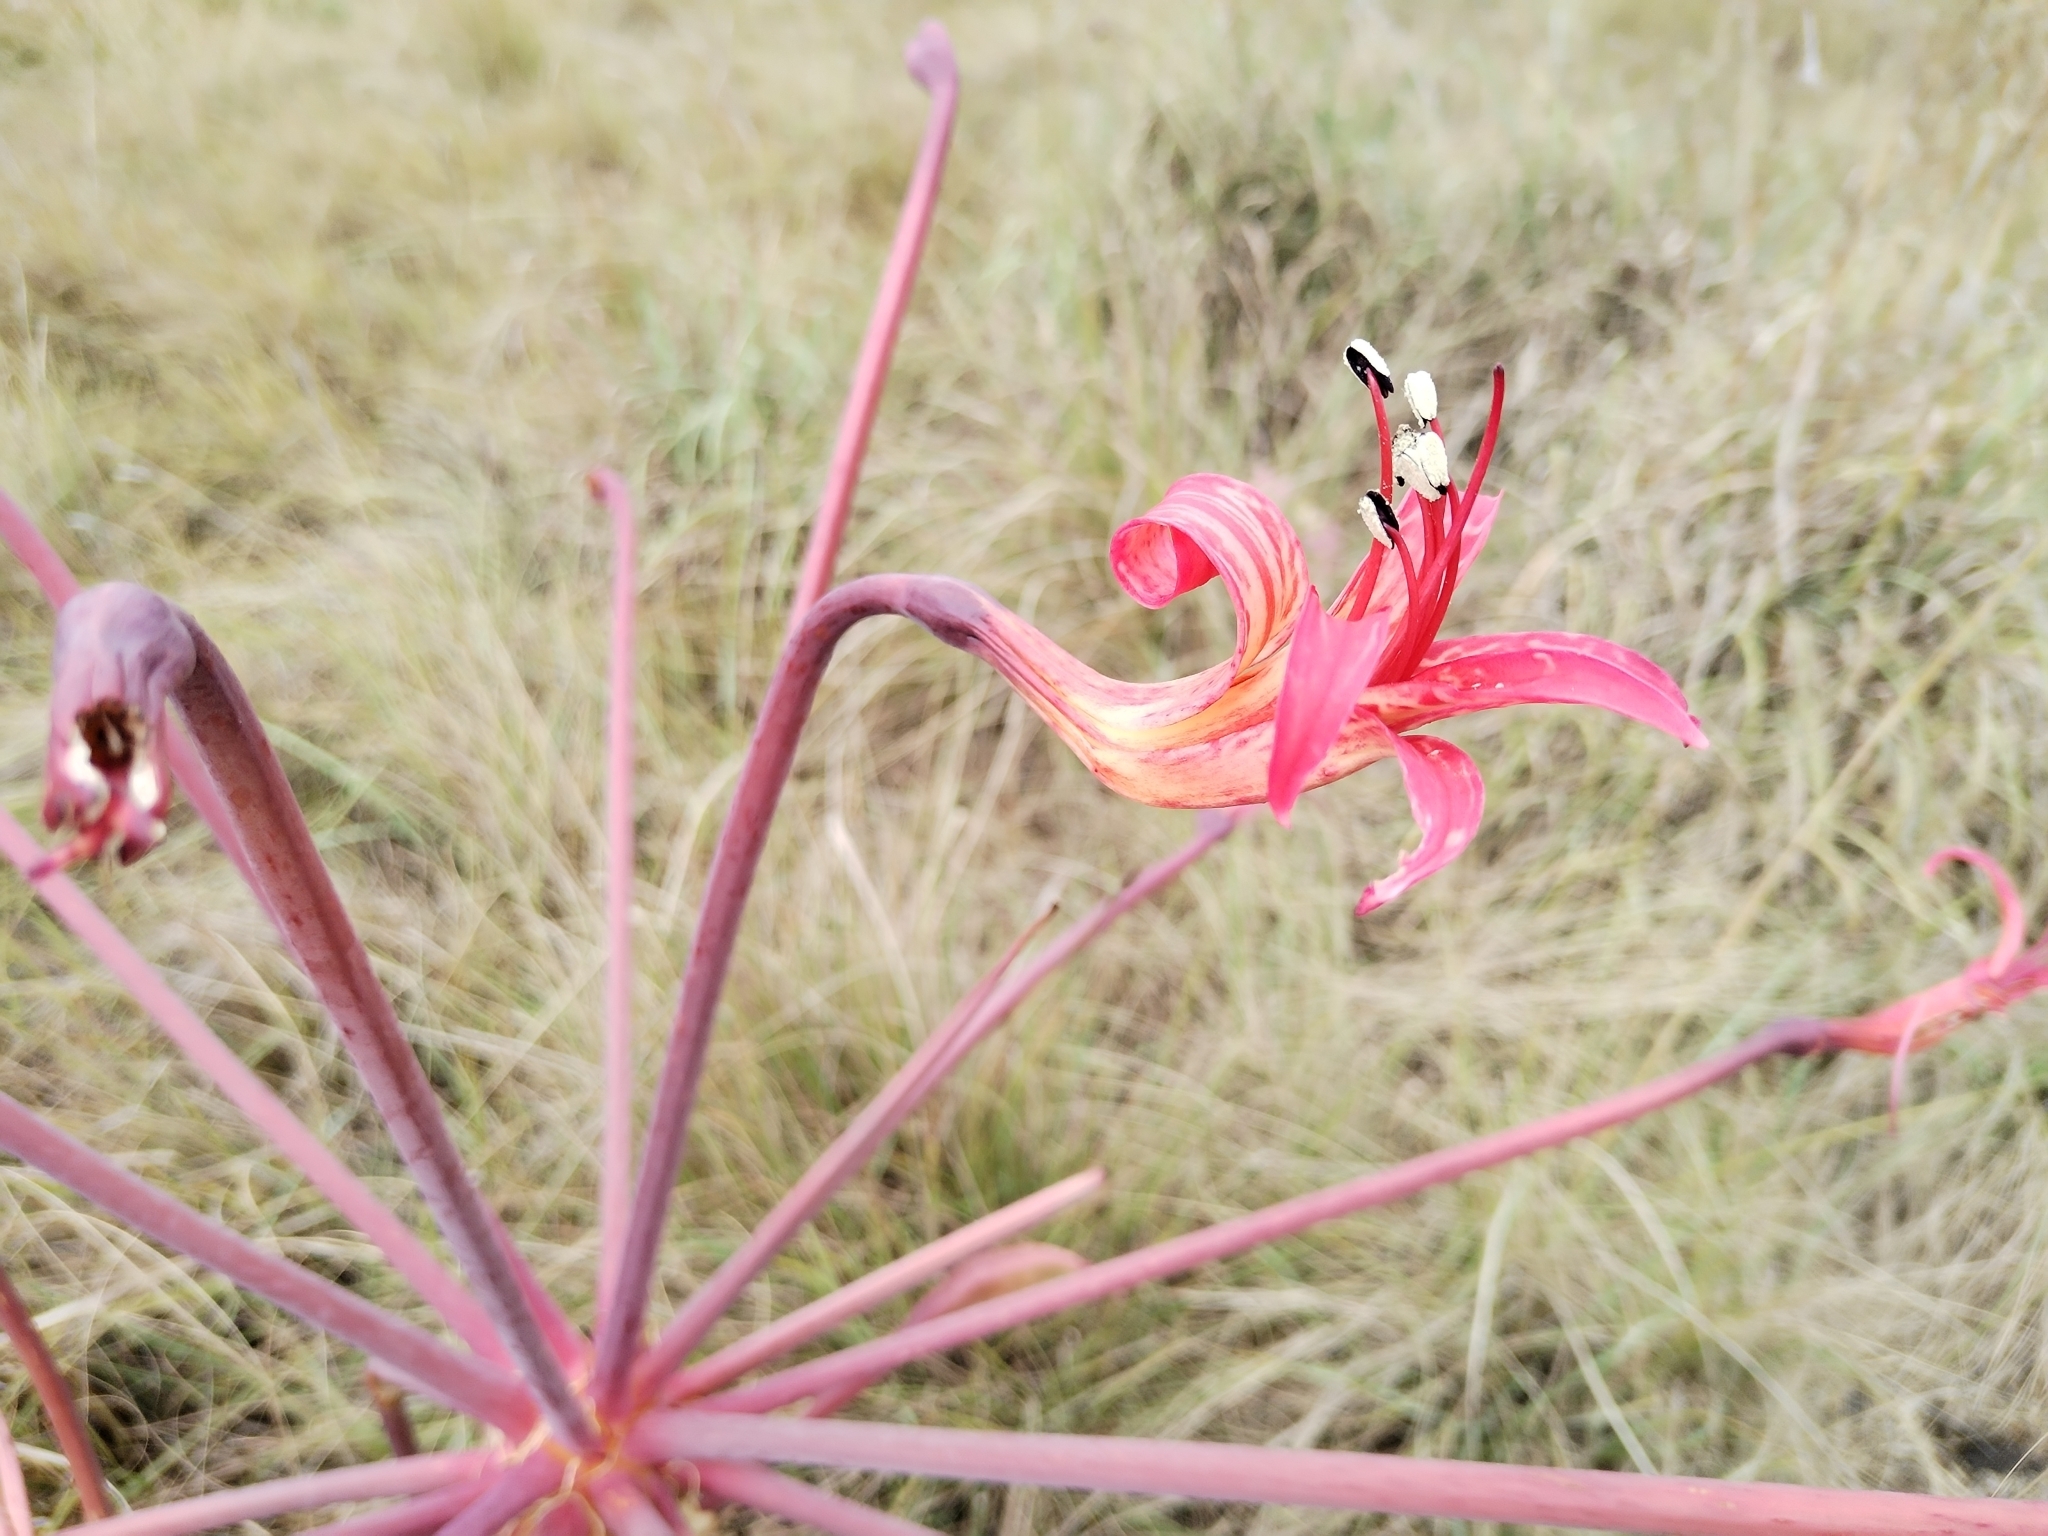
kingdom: Plantae
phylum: Tracheophyta
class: Liliopsida
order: Asparagales
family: Amaryllidaceae
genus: Brunsvigia
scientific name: Brunsvigia litoralis
